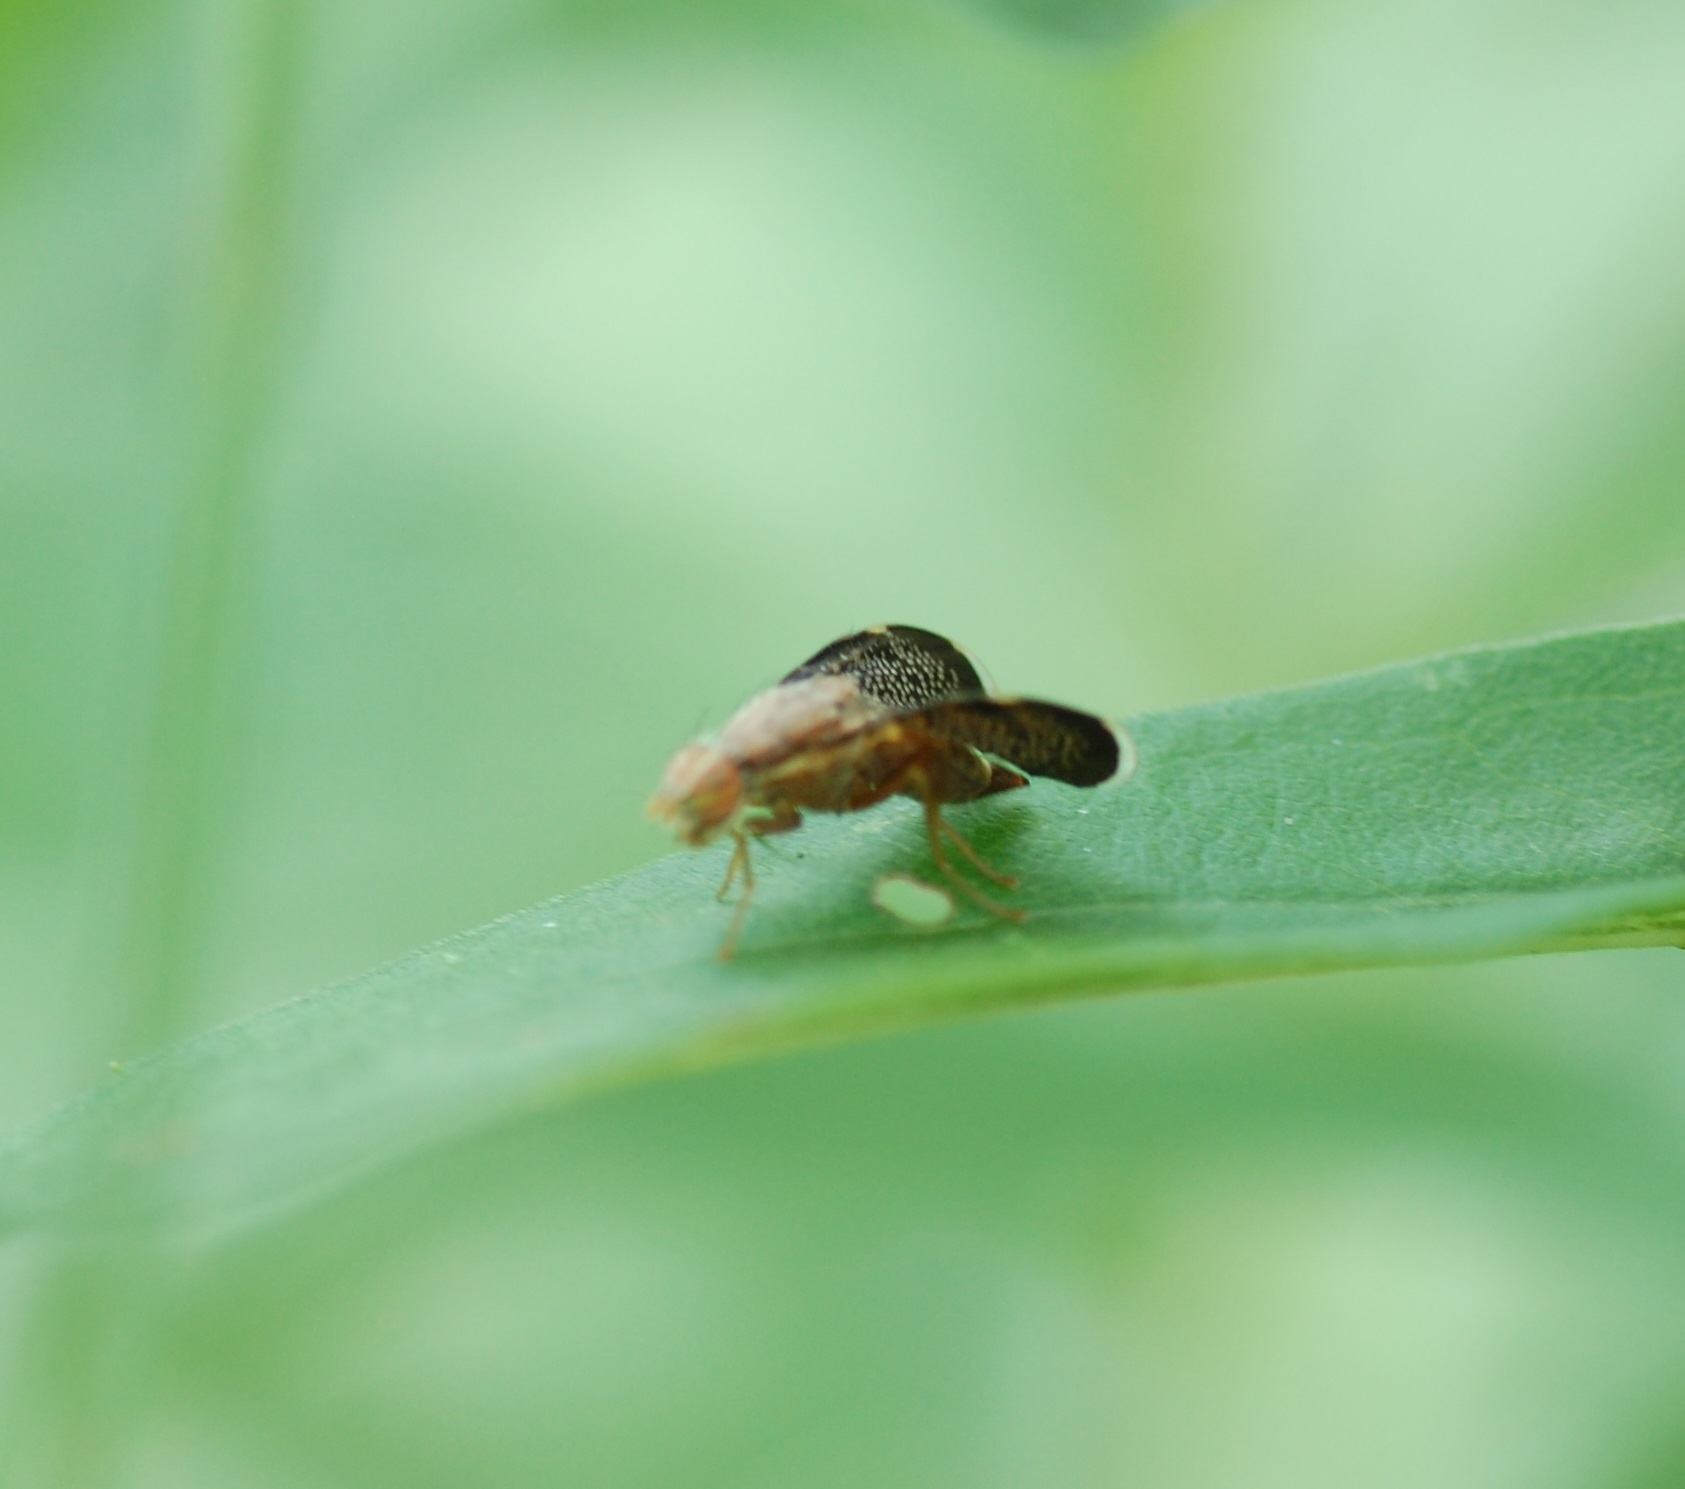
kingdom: Animalia
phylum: Arthropoda
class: Insecta
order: Diptera
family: Tephritidae
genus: Eutreta
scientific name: Eutreta novaeboracensis
